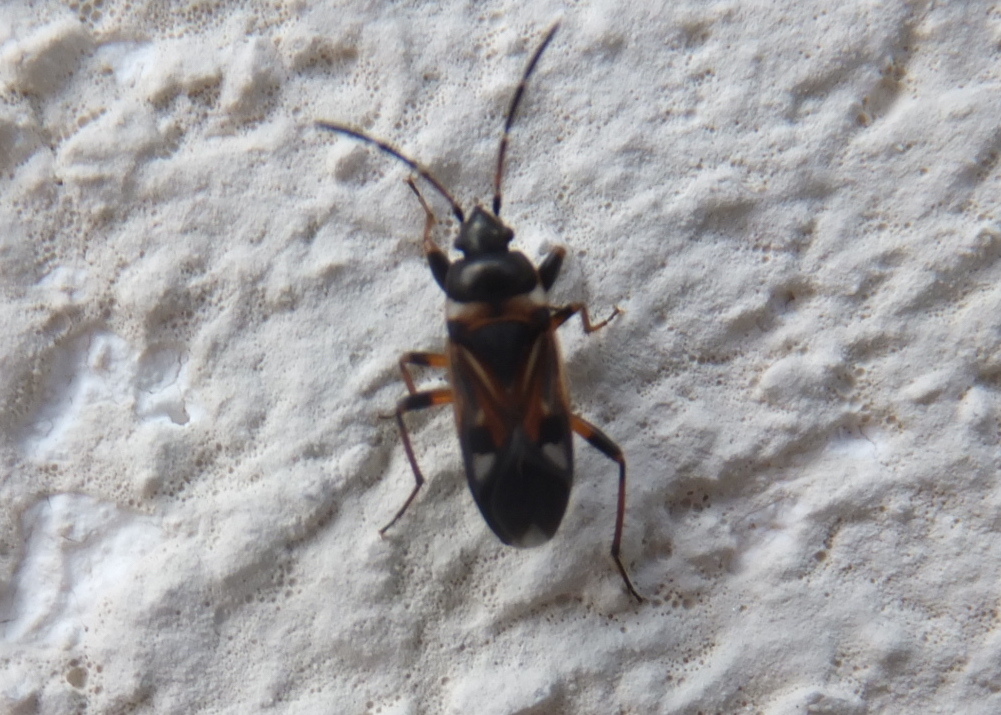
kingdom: Animalia
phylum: Arthropoda
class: Insecta
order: Hemiptera
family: Rhyparochromidae
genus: Raglius
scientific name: Raglius alboacuminatus
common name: Dirt-colored seed bug
